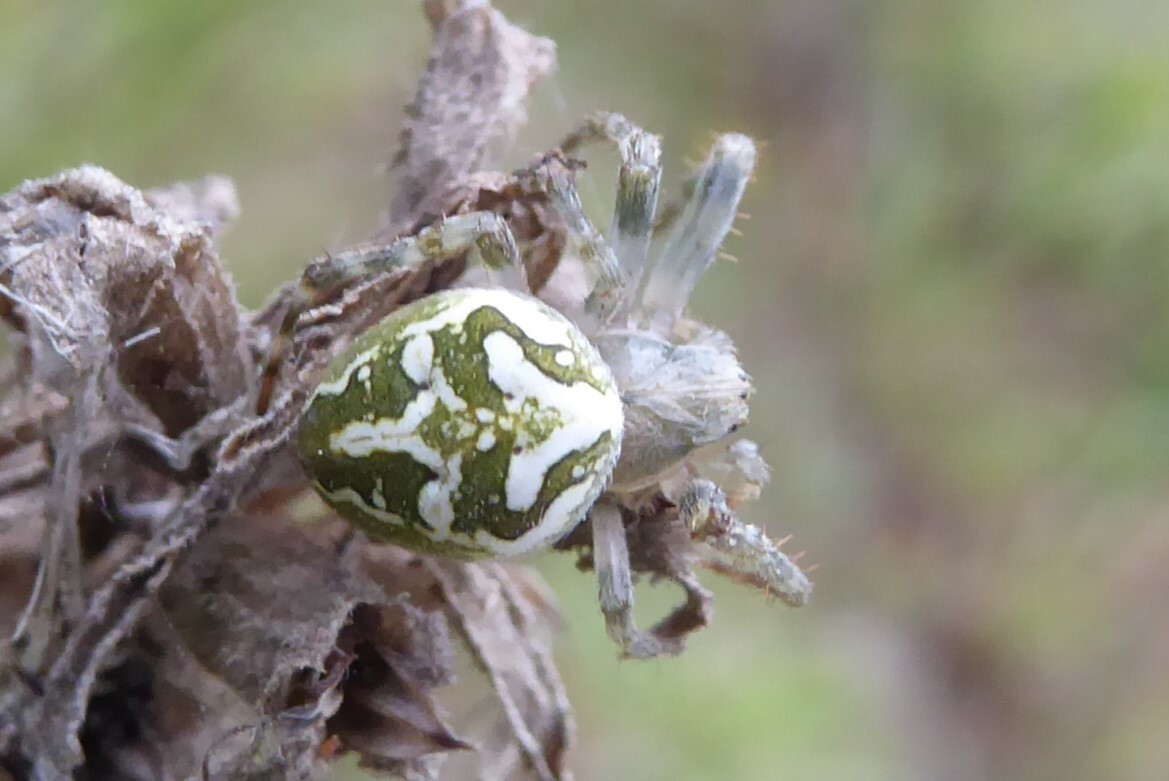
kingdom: Animalia
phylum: Arthropoda
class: Arachnida
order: Araneae
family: Araneidae
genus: Colaranea
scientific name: Colaranea verutum
